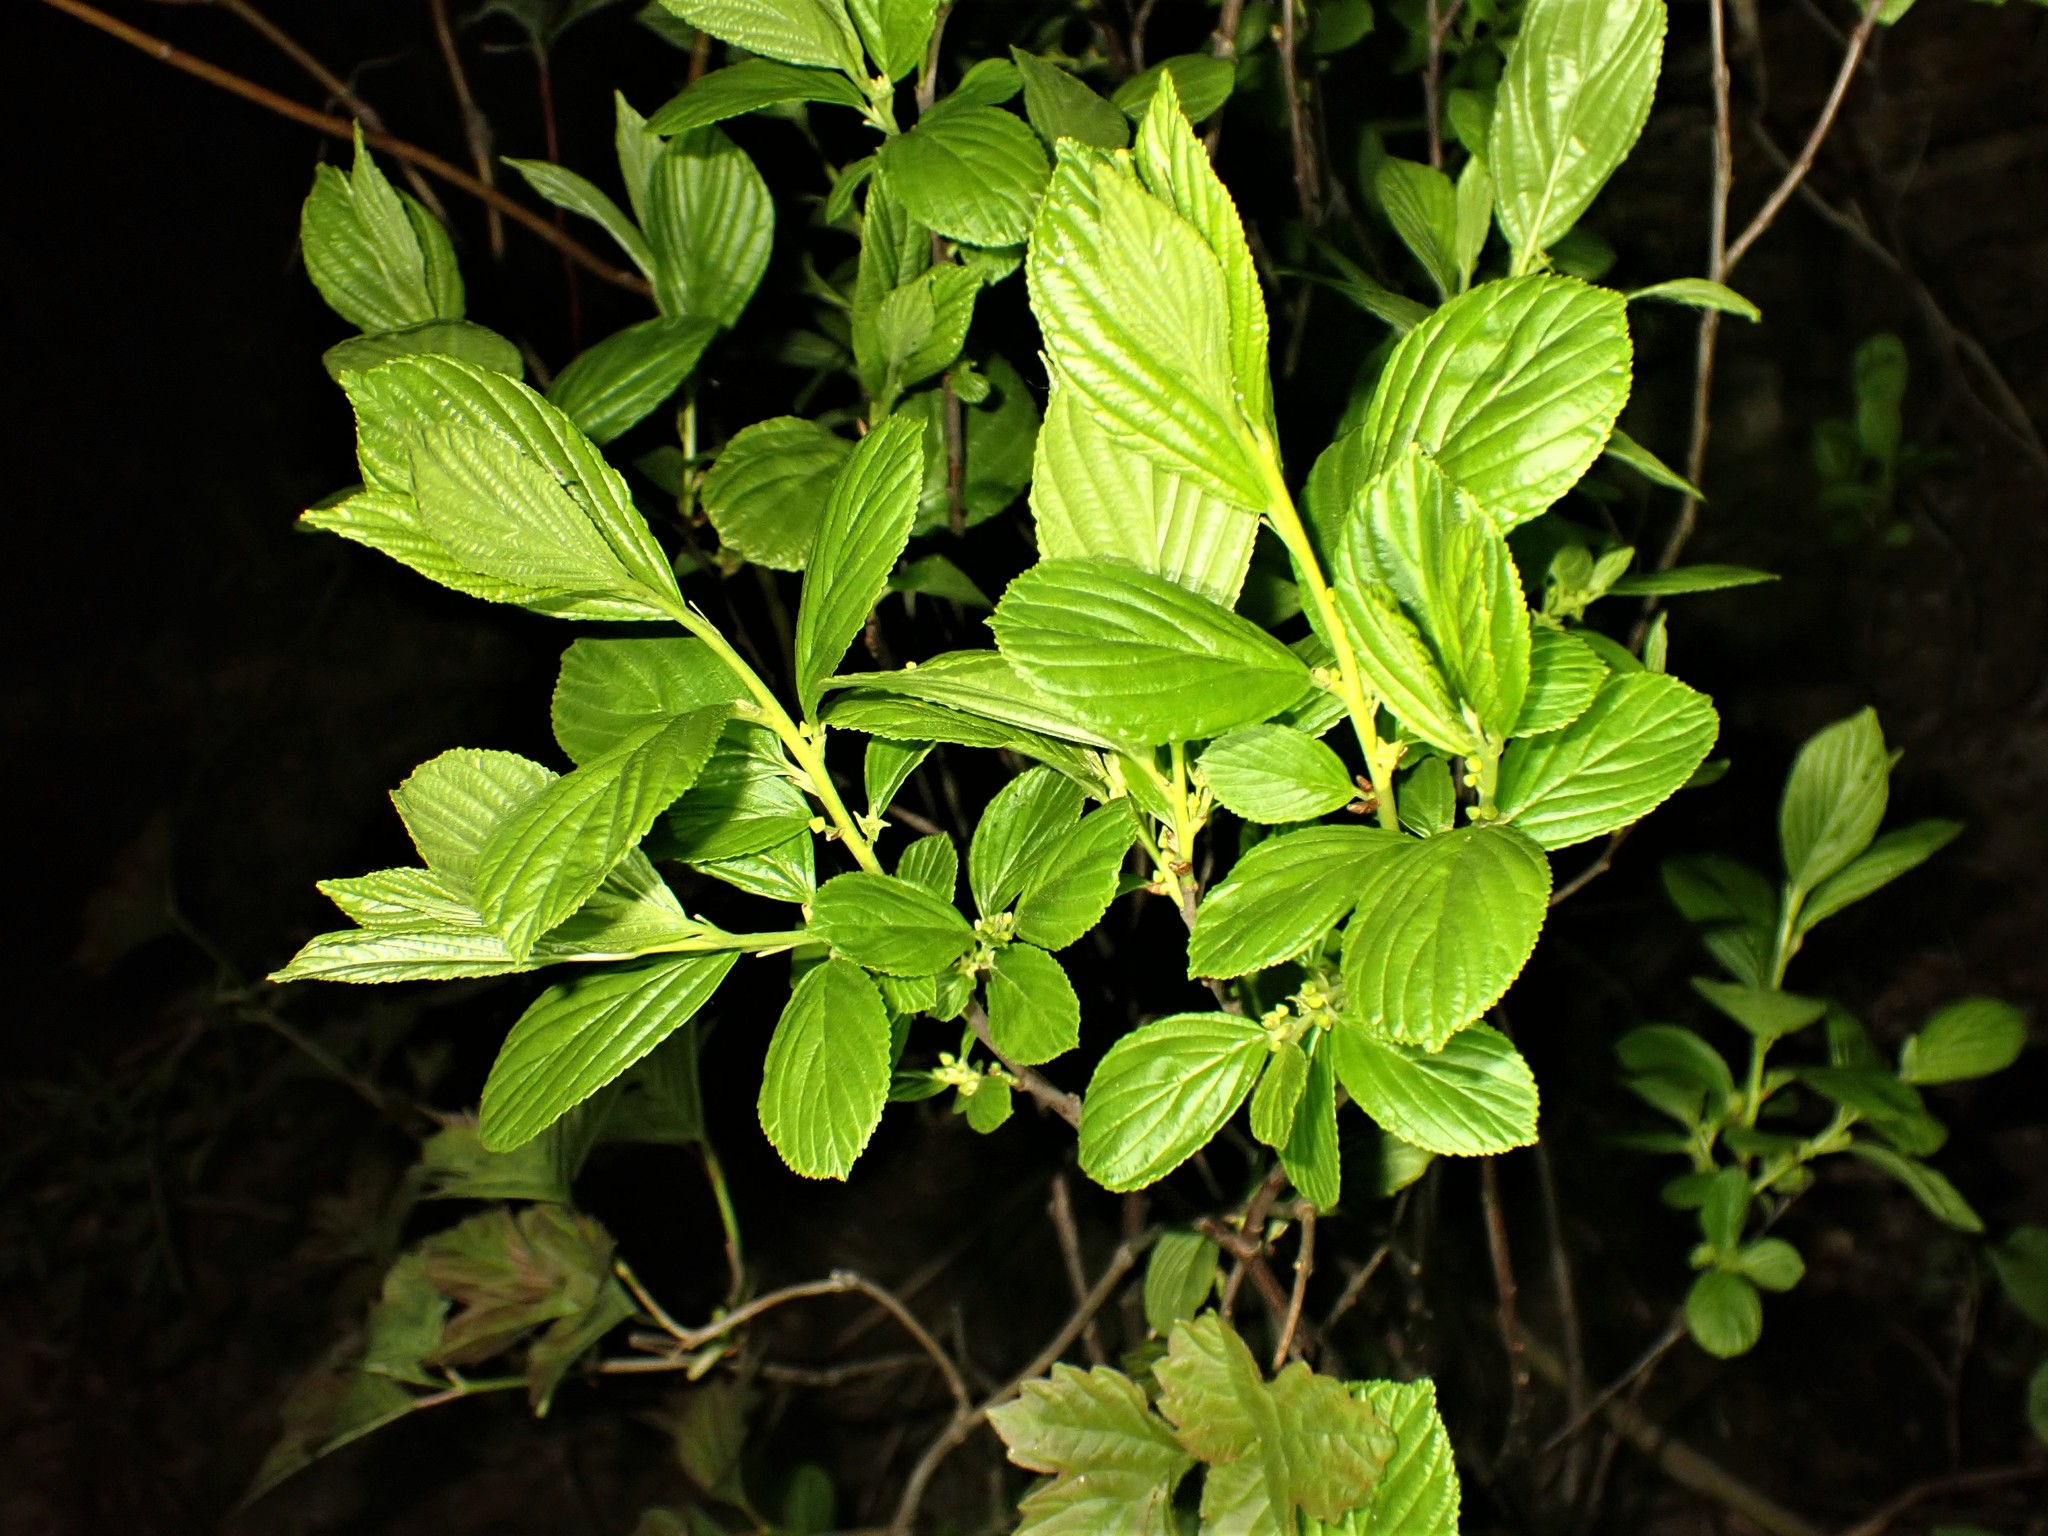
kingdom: Plantae
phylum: Tracheophyta
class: Magnoliopsida
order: Rosales
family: Rhamnaceae
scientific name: Rhamnaceae
